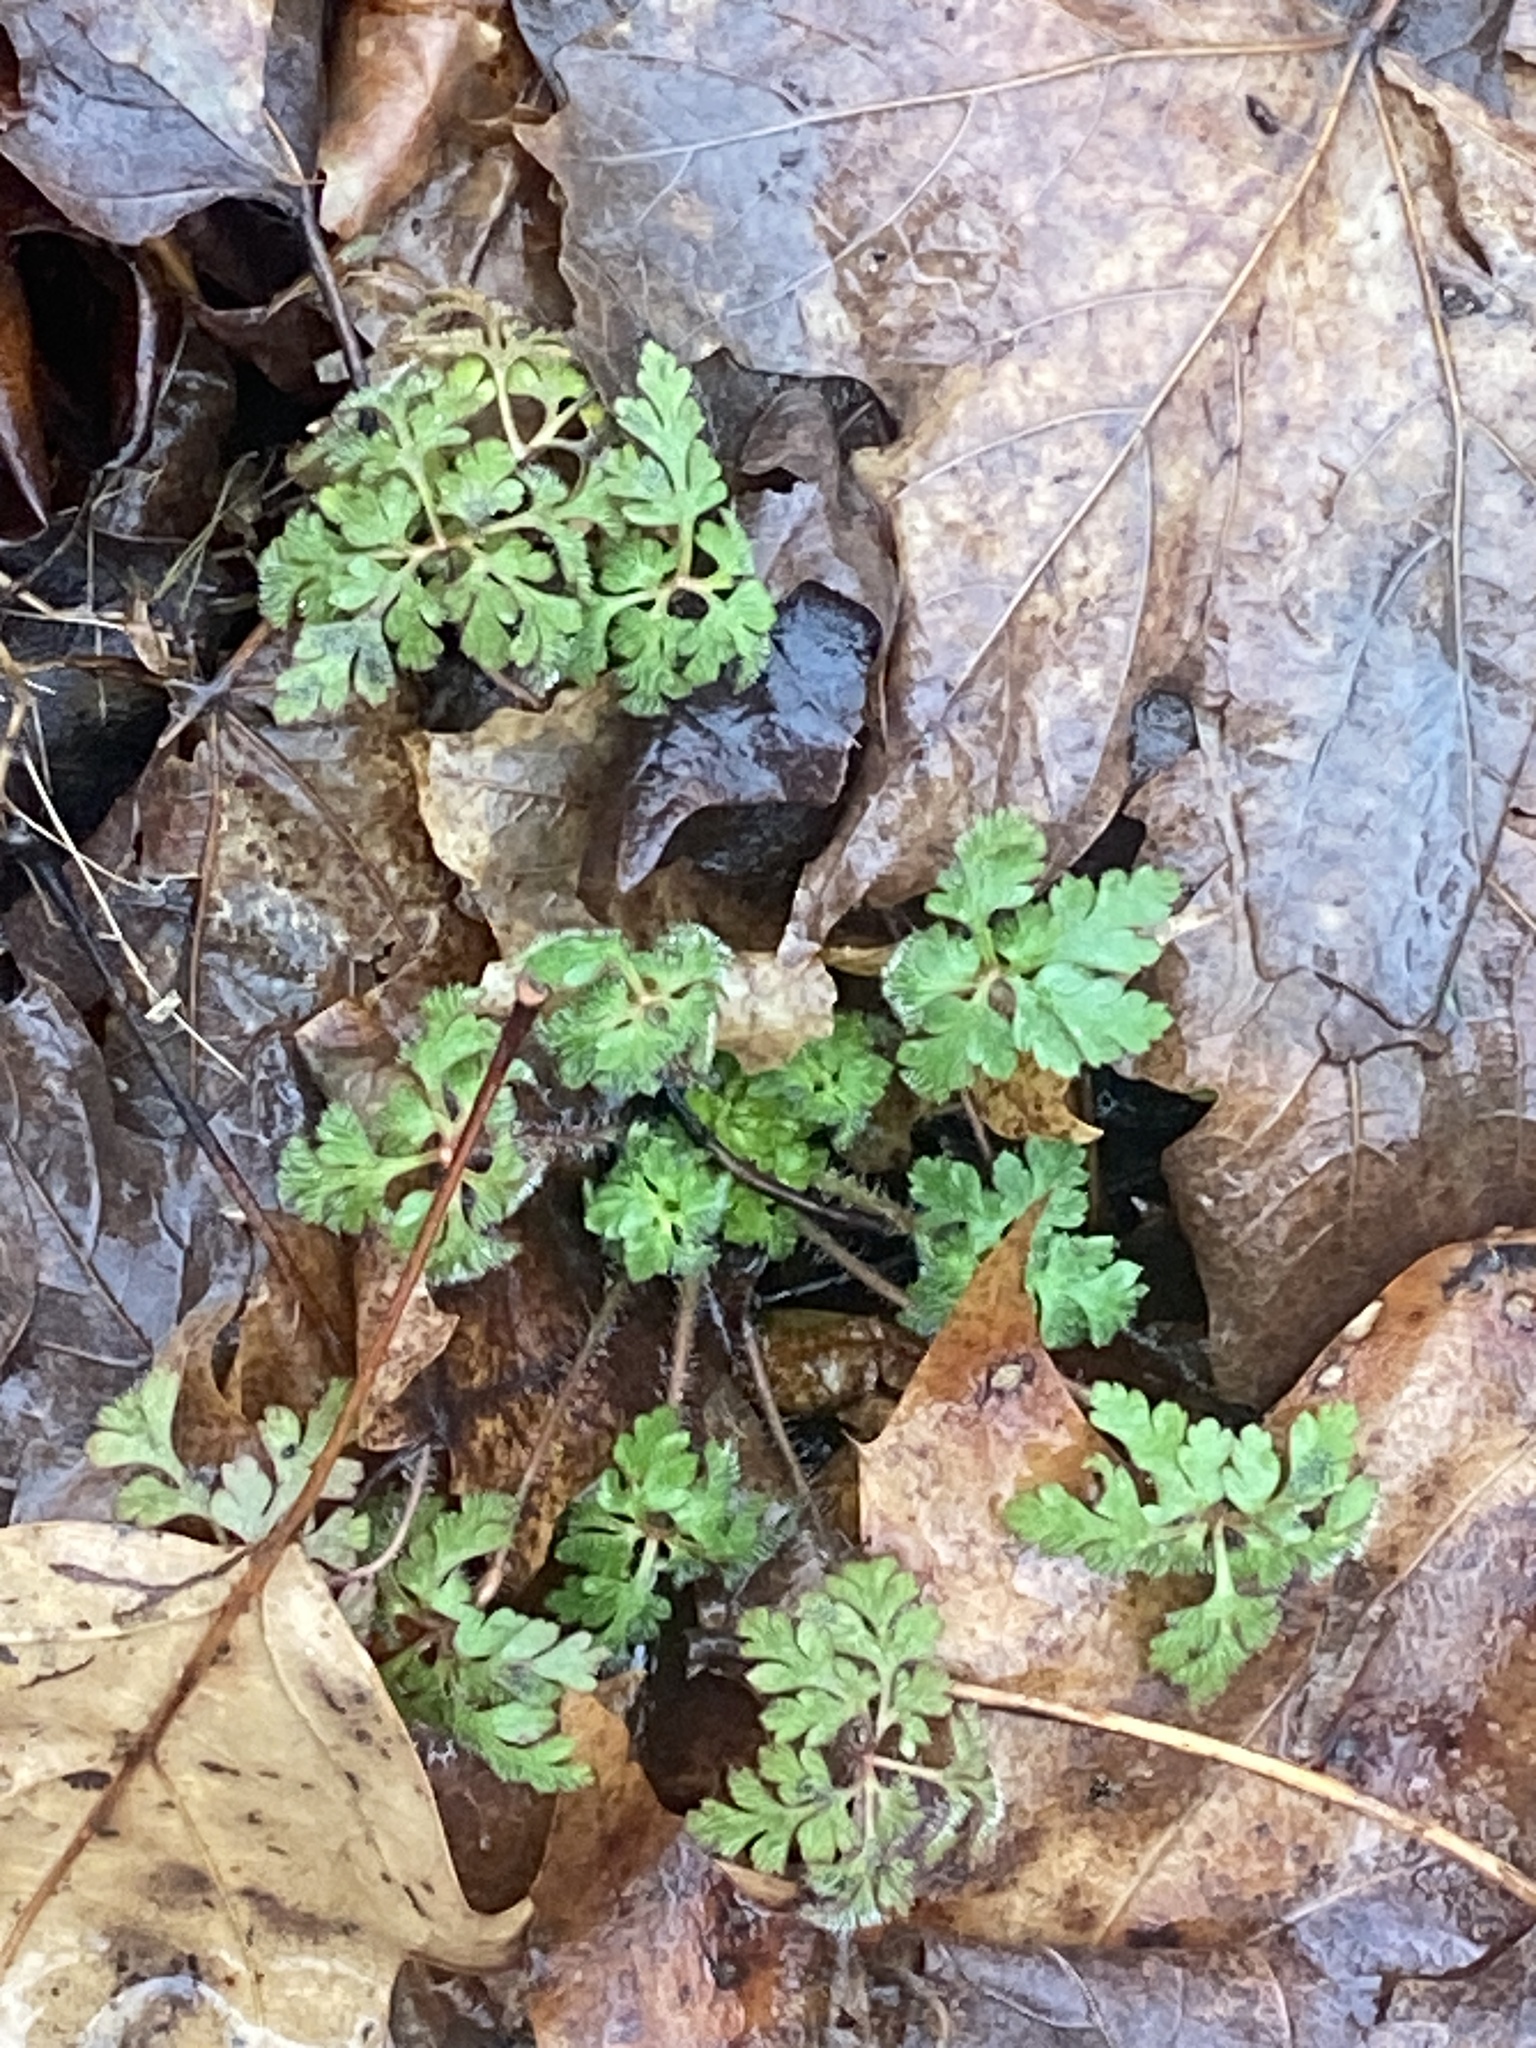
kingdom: Plantae
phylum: Tracheophyta
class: Magnoliopsida
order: Geraniales
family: Geraniaceae
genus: Geranium
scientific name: Geranium robertianum
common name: Herb-robert
